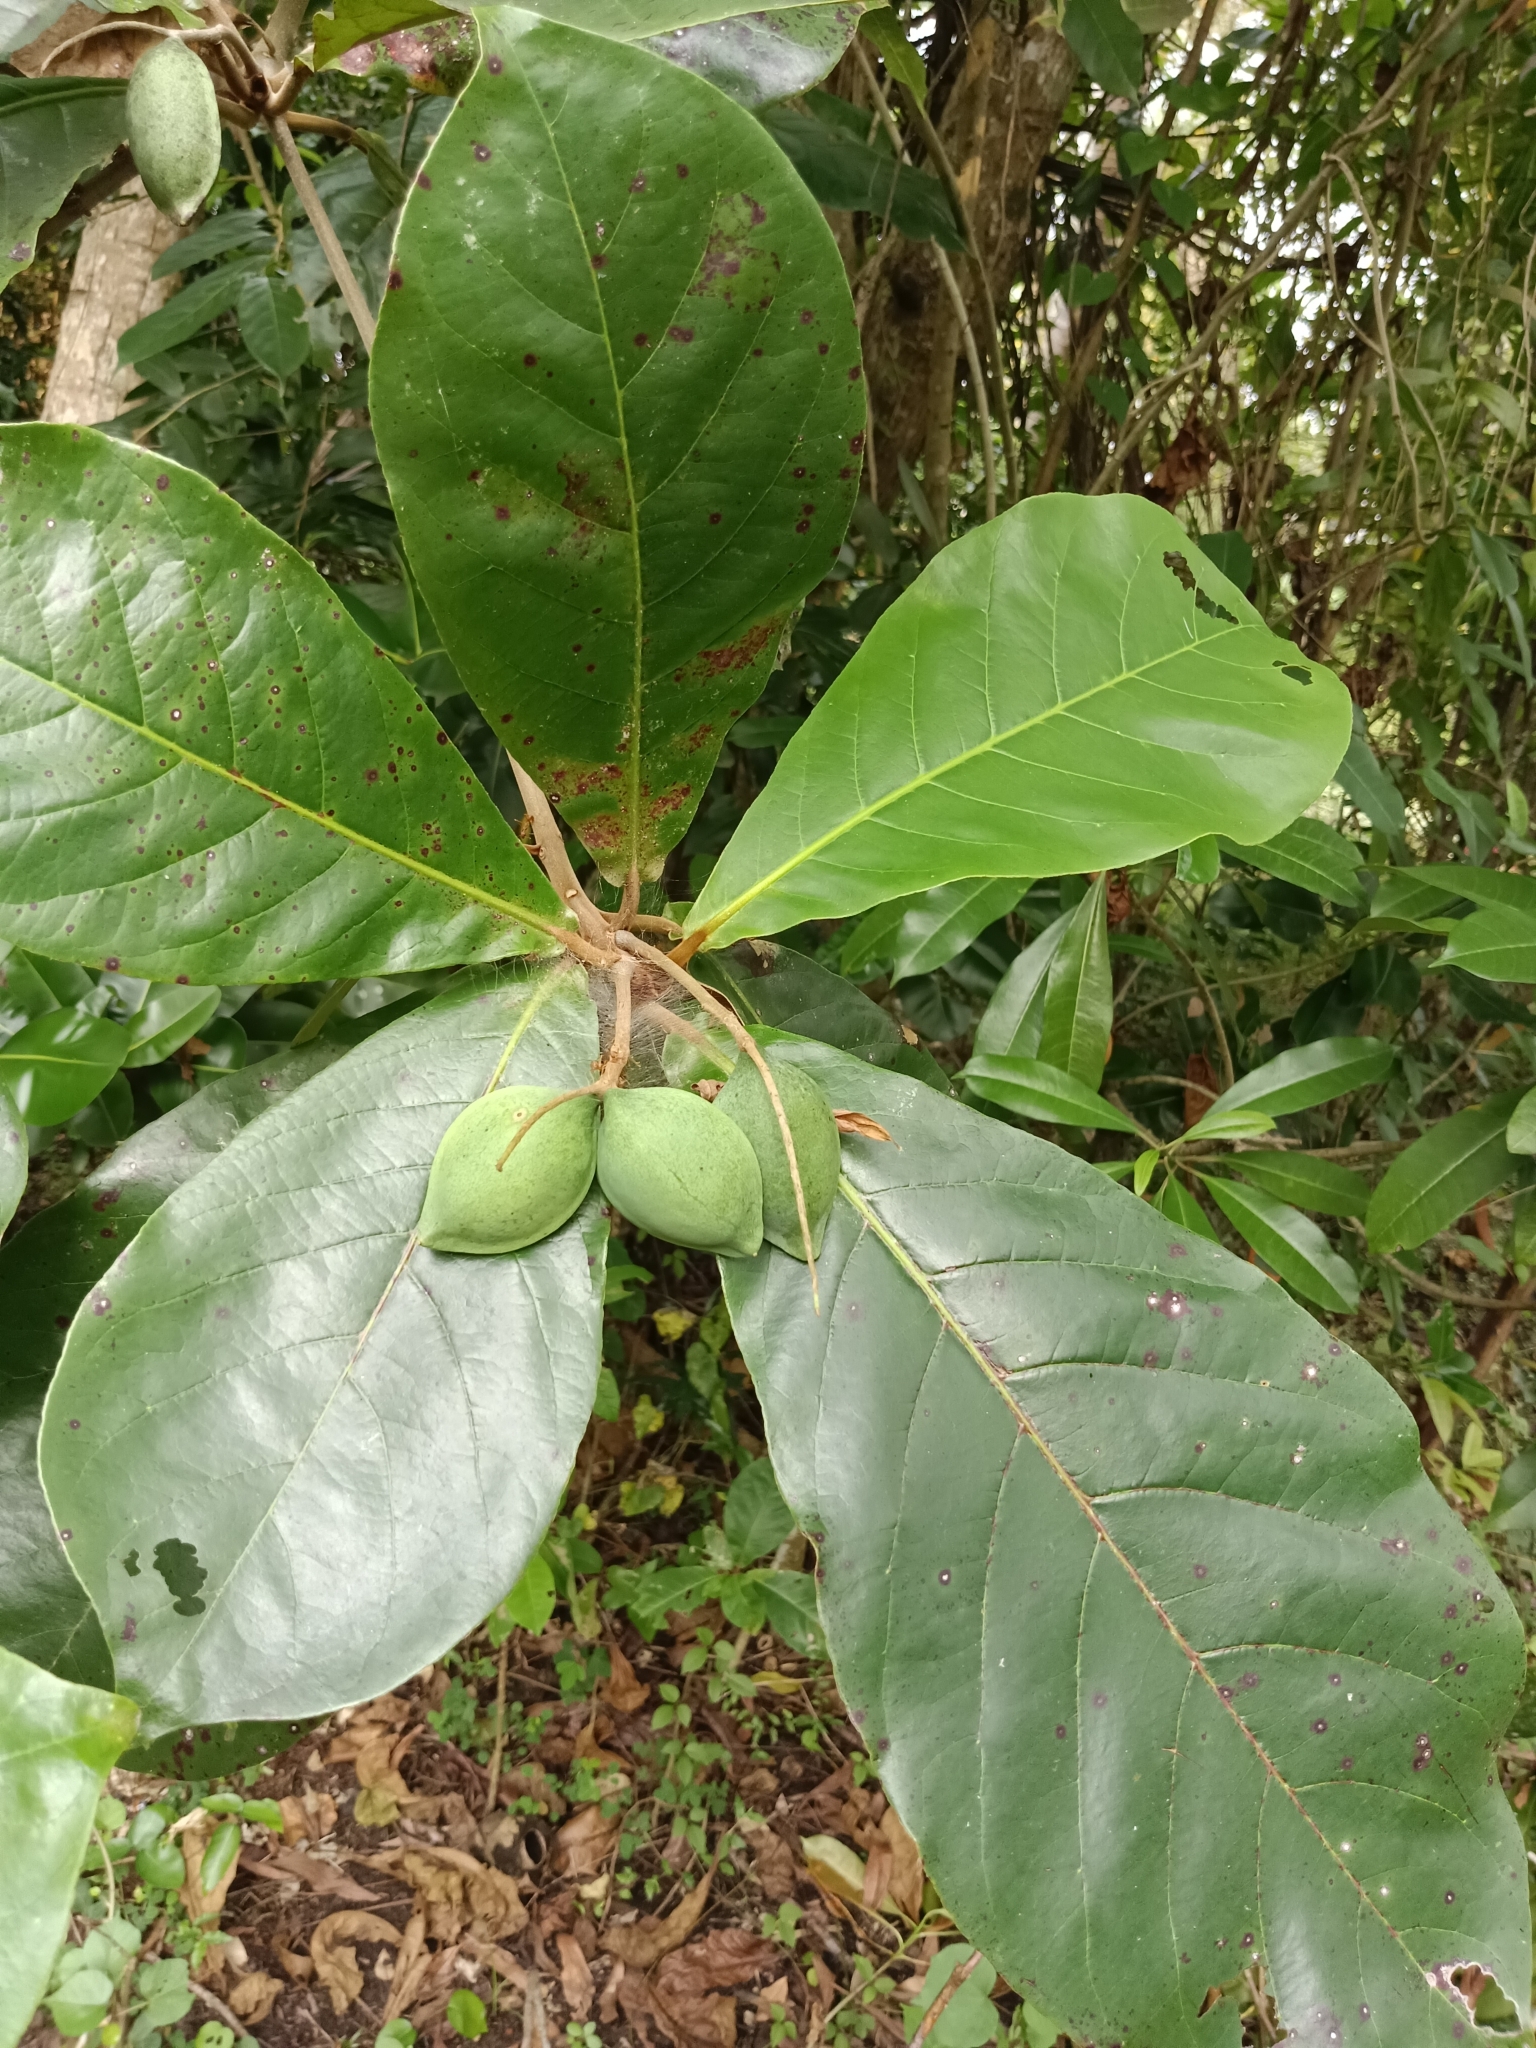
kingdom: Plantae
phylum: Tracheophyta
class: Magnoliopsida
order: Myrtales
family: Combretaceae
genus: Terminalia
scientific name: Terminalia catappa
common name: Tropical almond
